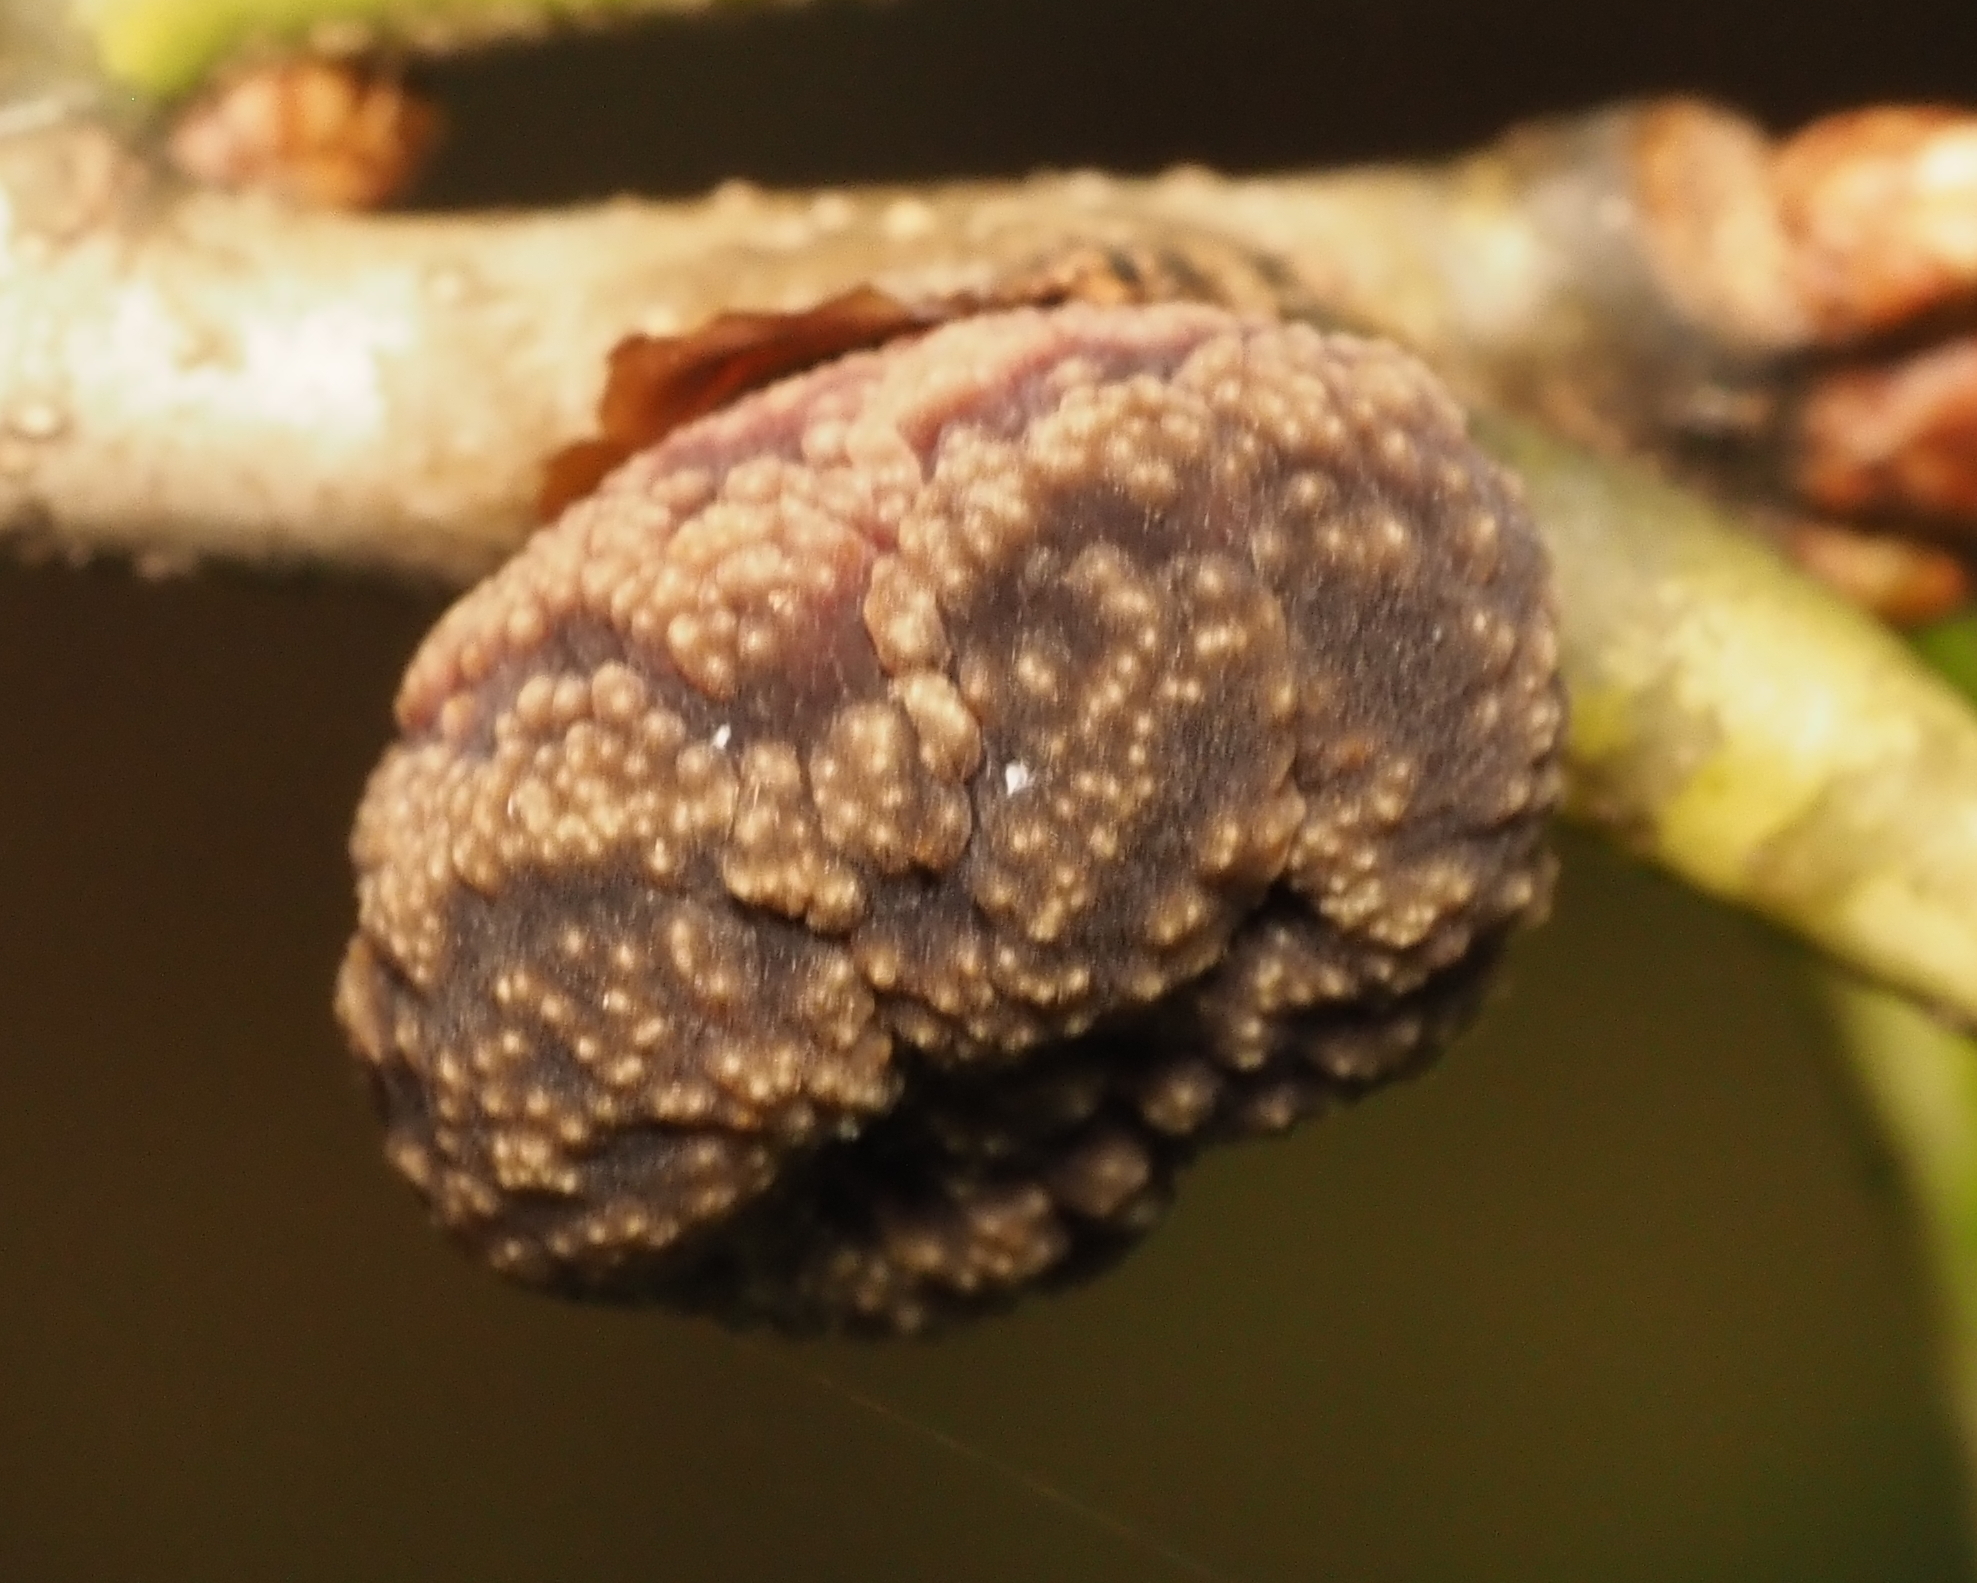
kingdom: Animalia
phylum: Arthropoda
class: Insecta
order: Hymenoptera
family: Cynipidae
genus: Kokkocynips
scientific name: Kokkocynips imbricariae
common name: Banded bullet gall wasp
